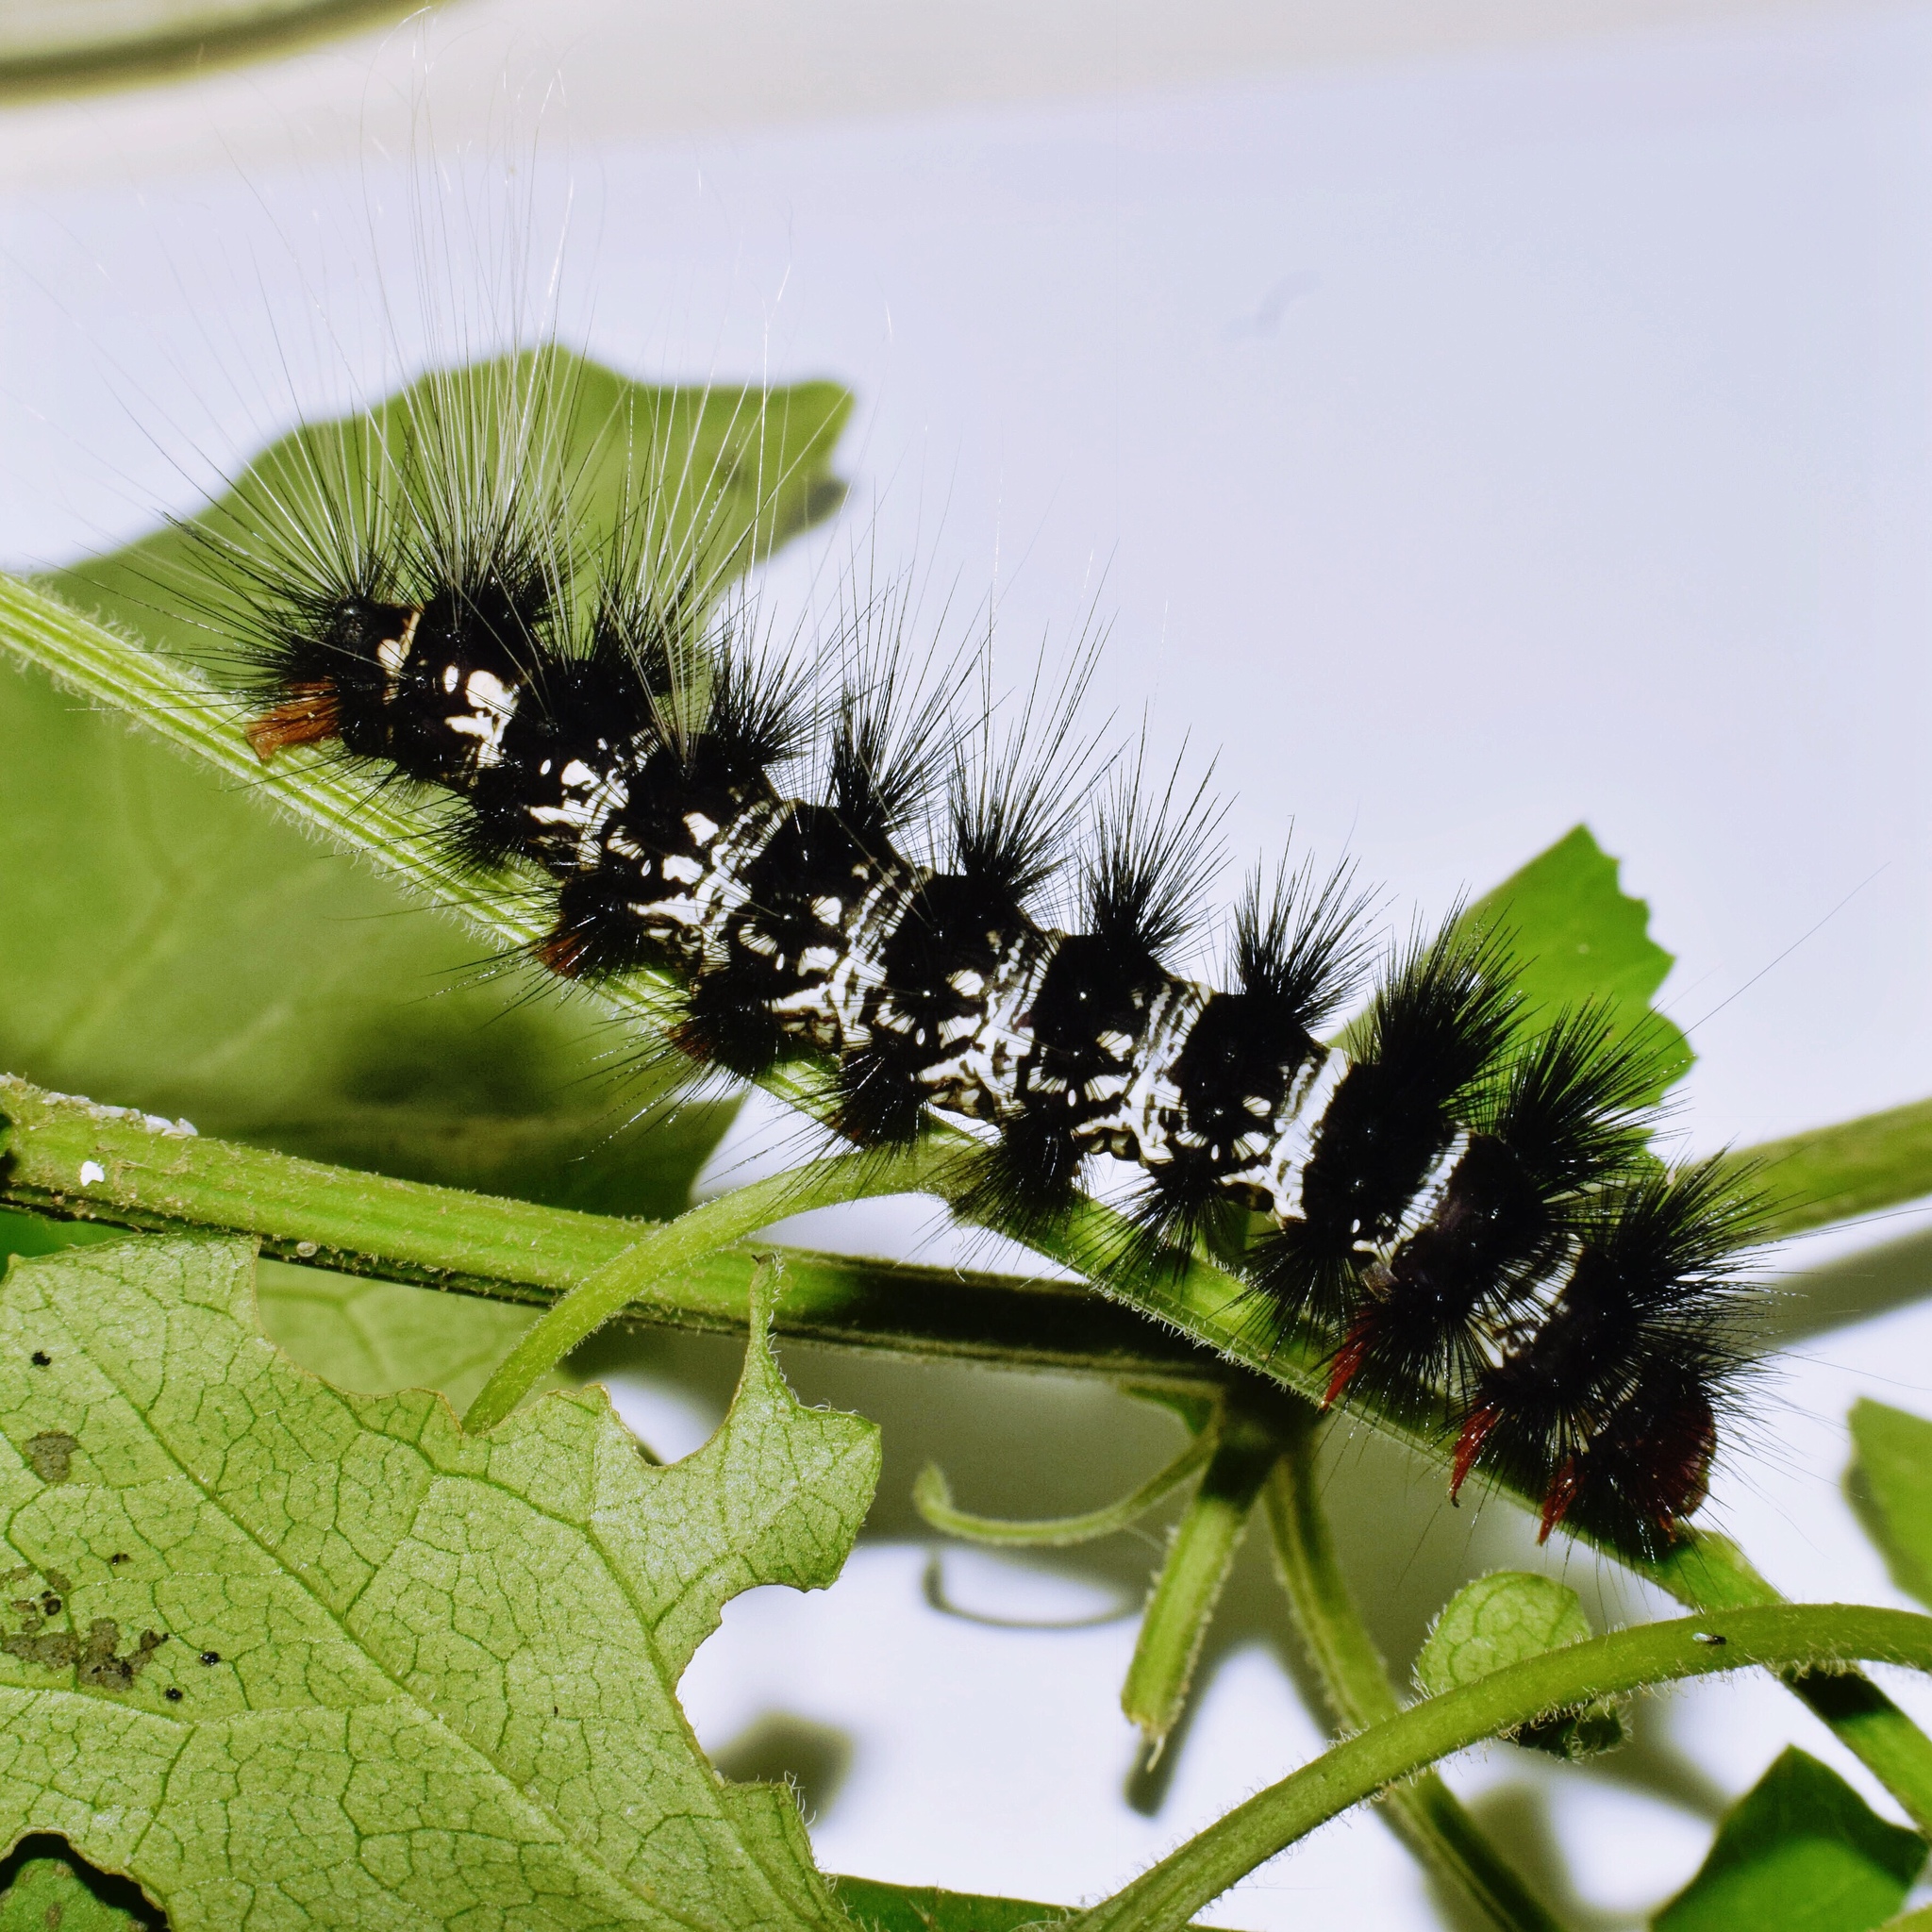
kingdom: Animalia
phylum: Arthropoda
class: Insecta
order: Lepidoptera
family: Erebidae
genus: Afromurzinia
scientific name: Afromurzinia lutescens
